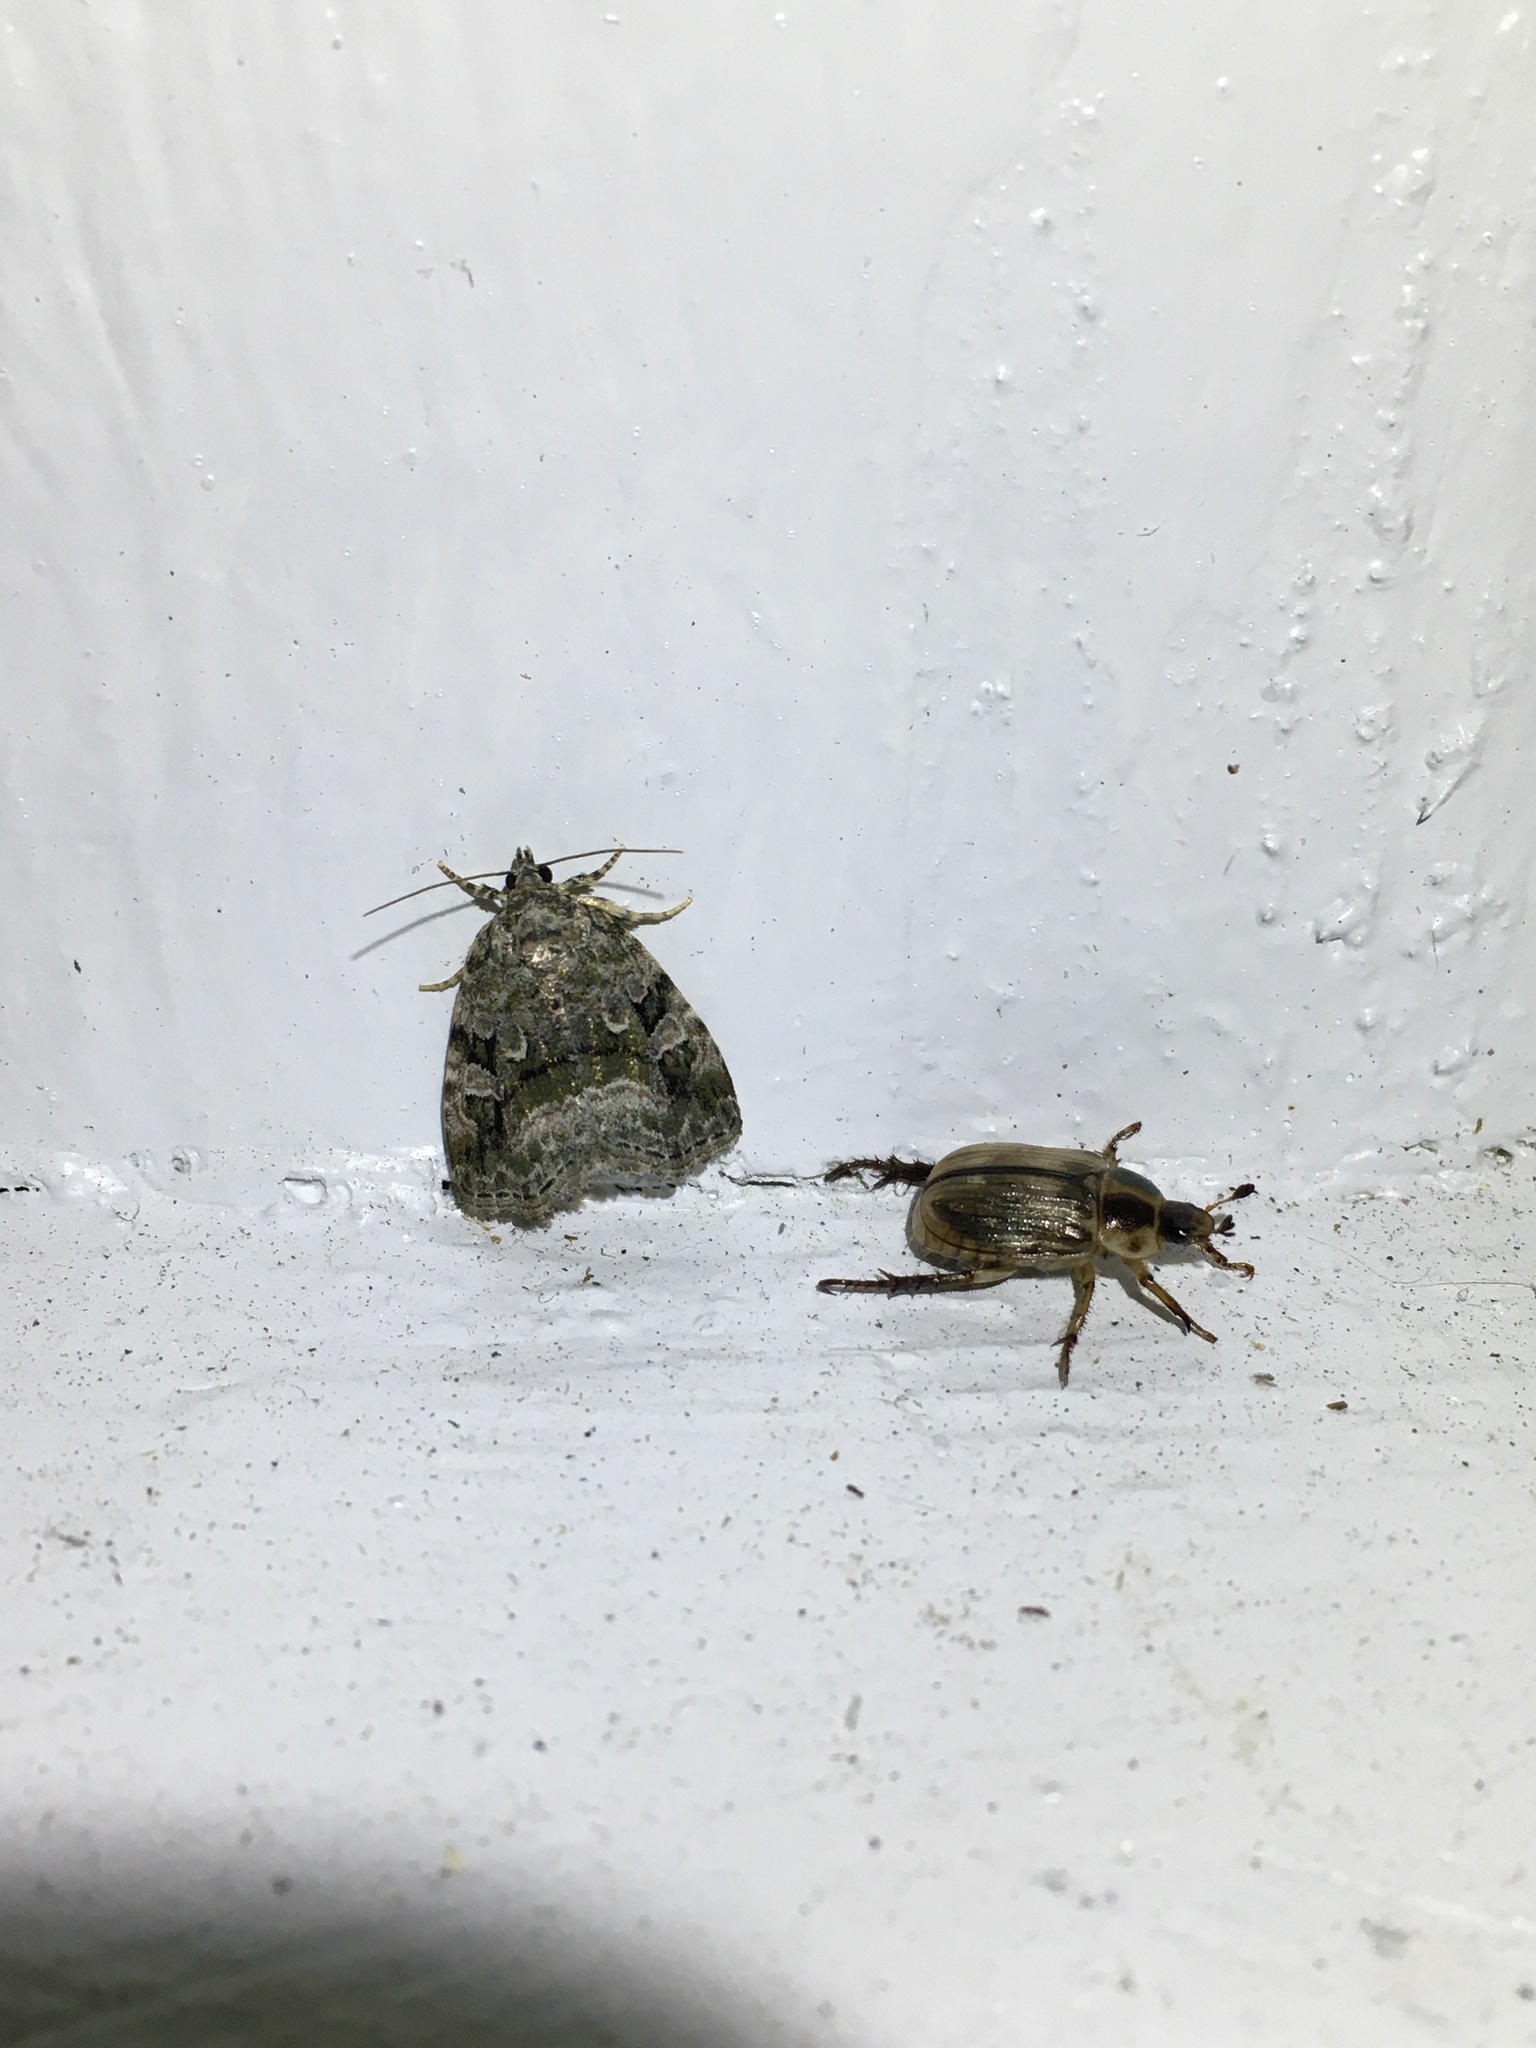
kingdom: Animalia
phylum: Arthropoda
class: Insecta
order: Lepidoptera
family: Noctuidae
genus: Protodeltote
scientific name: Protodeltote muscosula
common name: Large mossy glyph
